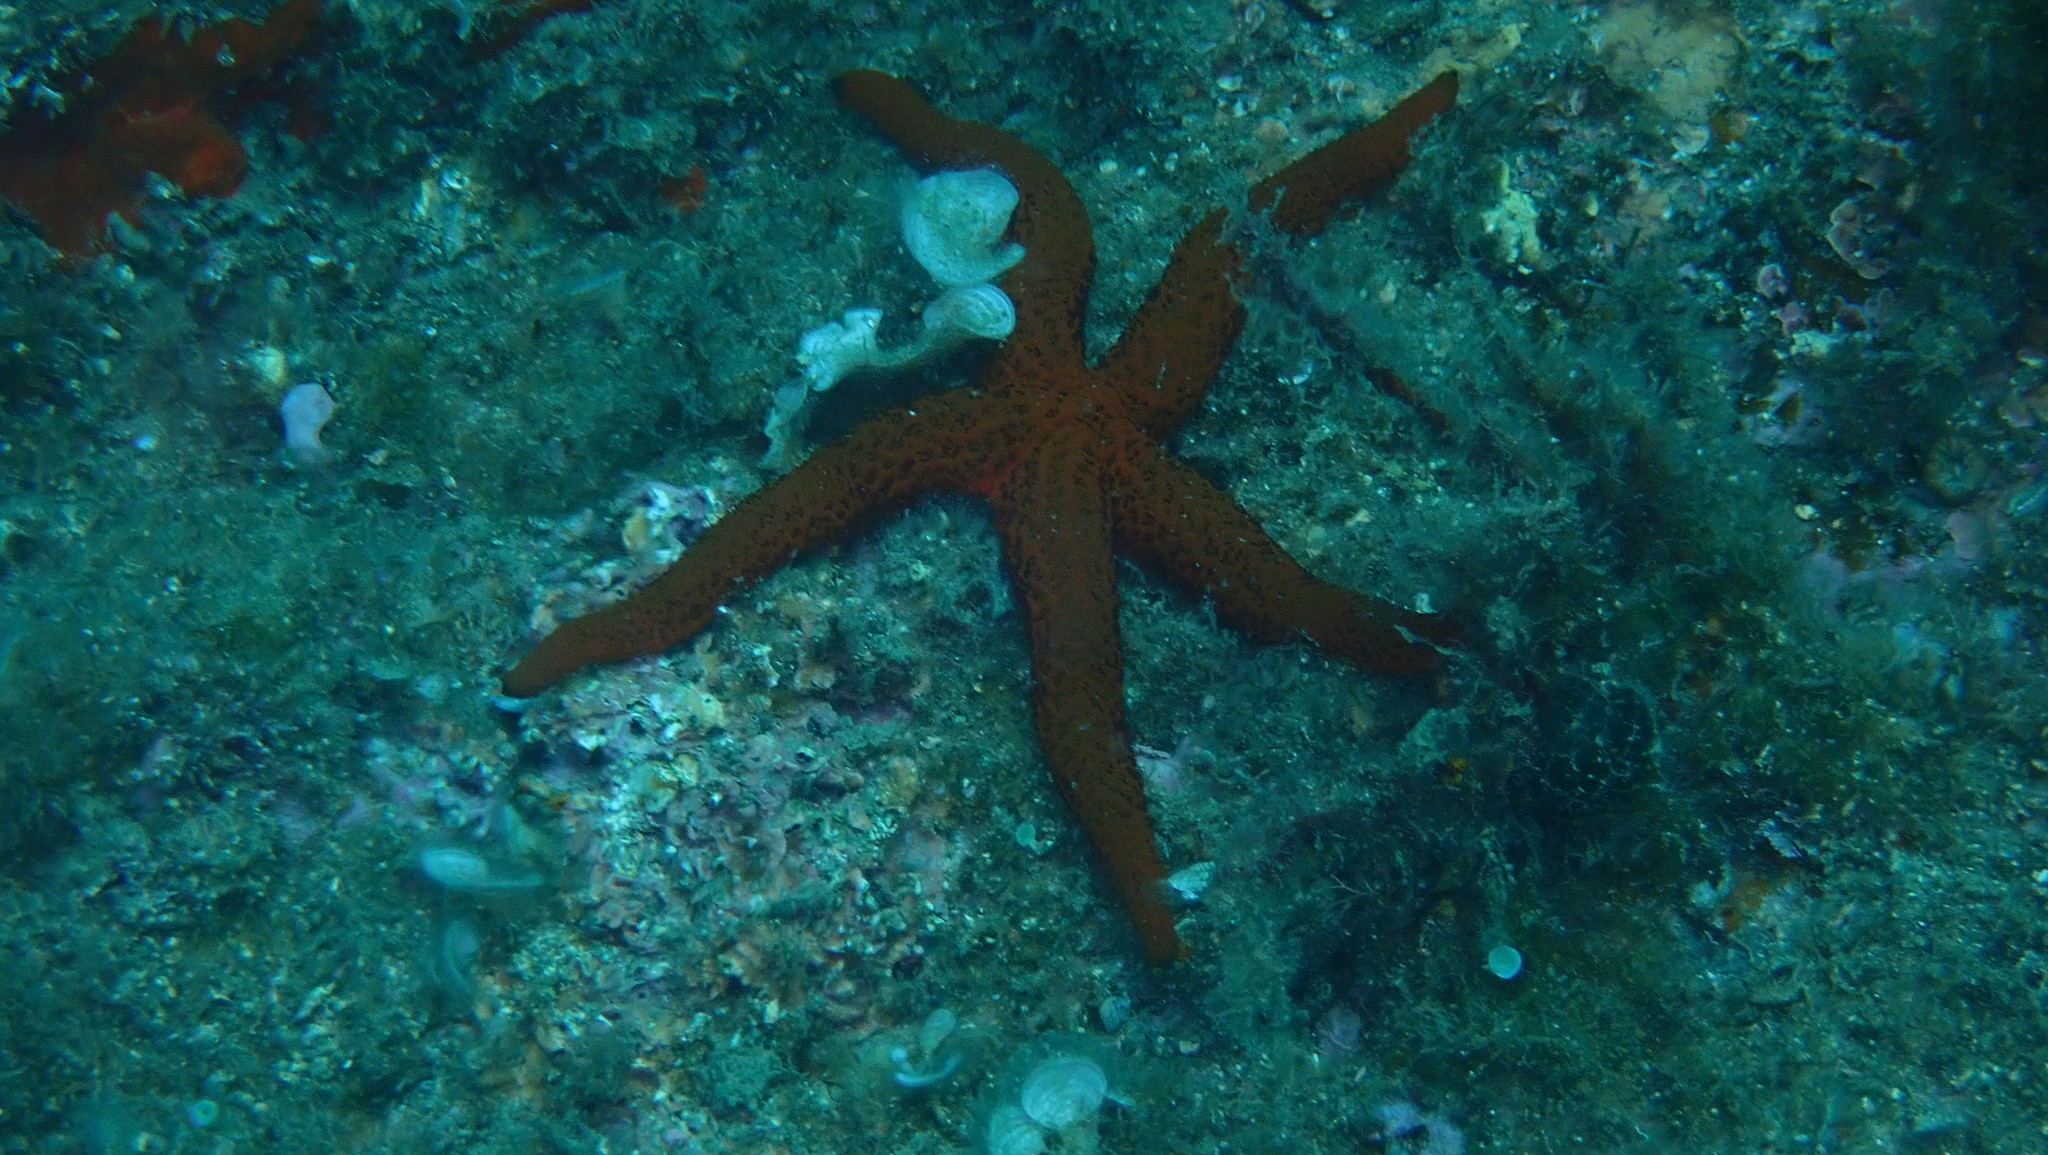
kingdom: Animalia
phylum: Echinodermata
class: Asteroidea
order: Spinulosida
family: Echinasteridae
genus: Echinaster
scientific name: Echinaster sepositus
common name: Red starfish
